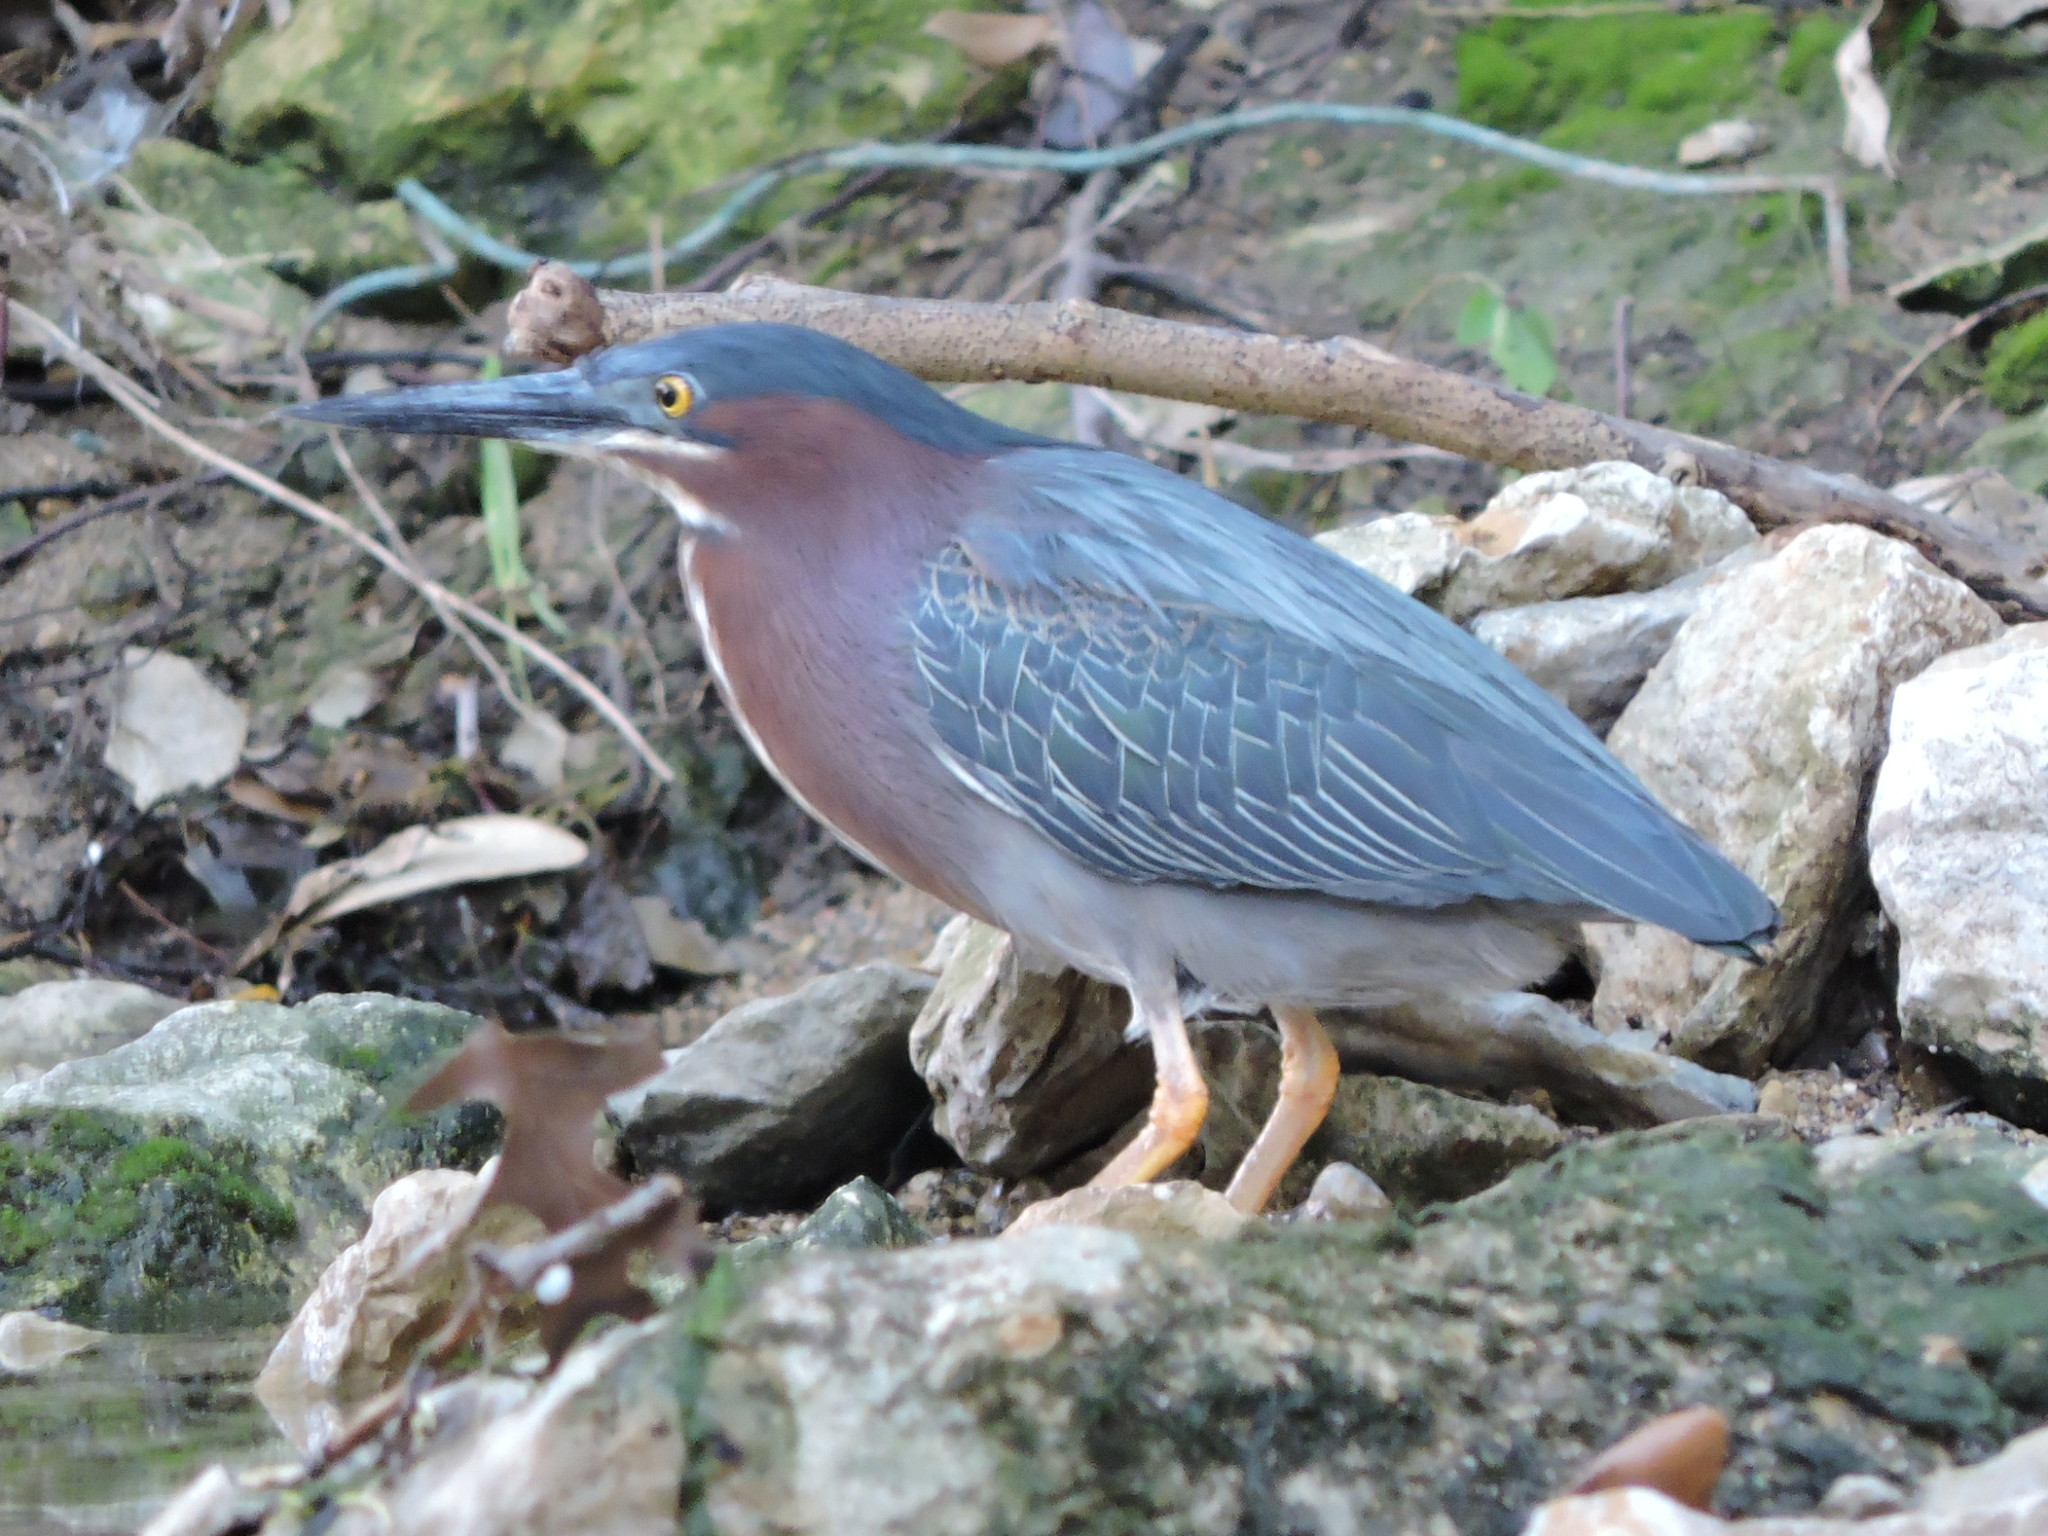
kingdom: Animalia
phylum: Chordata
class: Aves
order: Pelecaniformes
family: Ardeidae
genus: Butorides
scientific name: Butorides virescens
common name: Green heron
